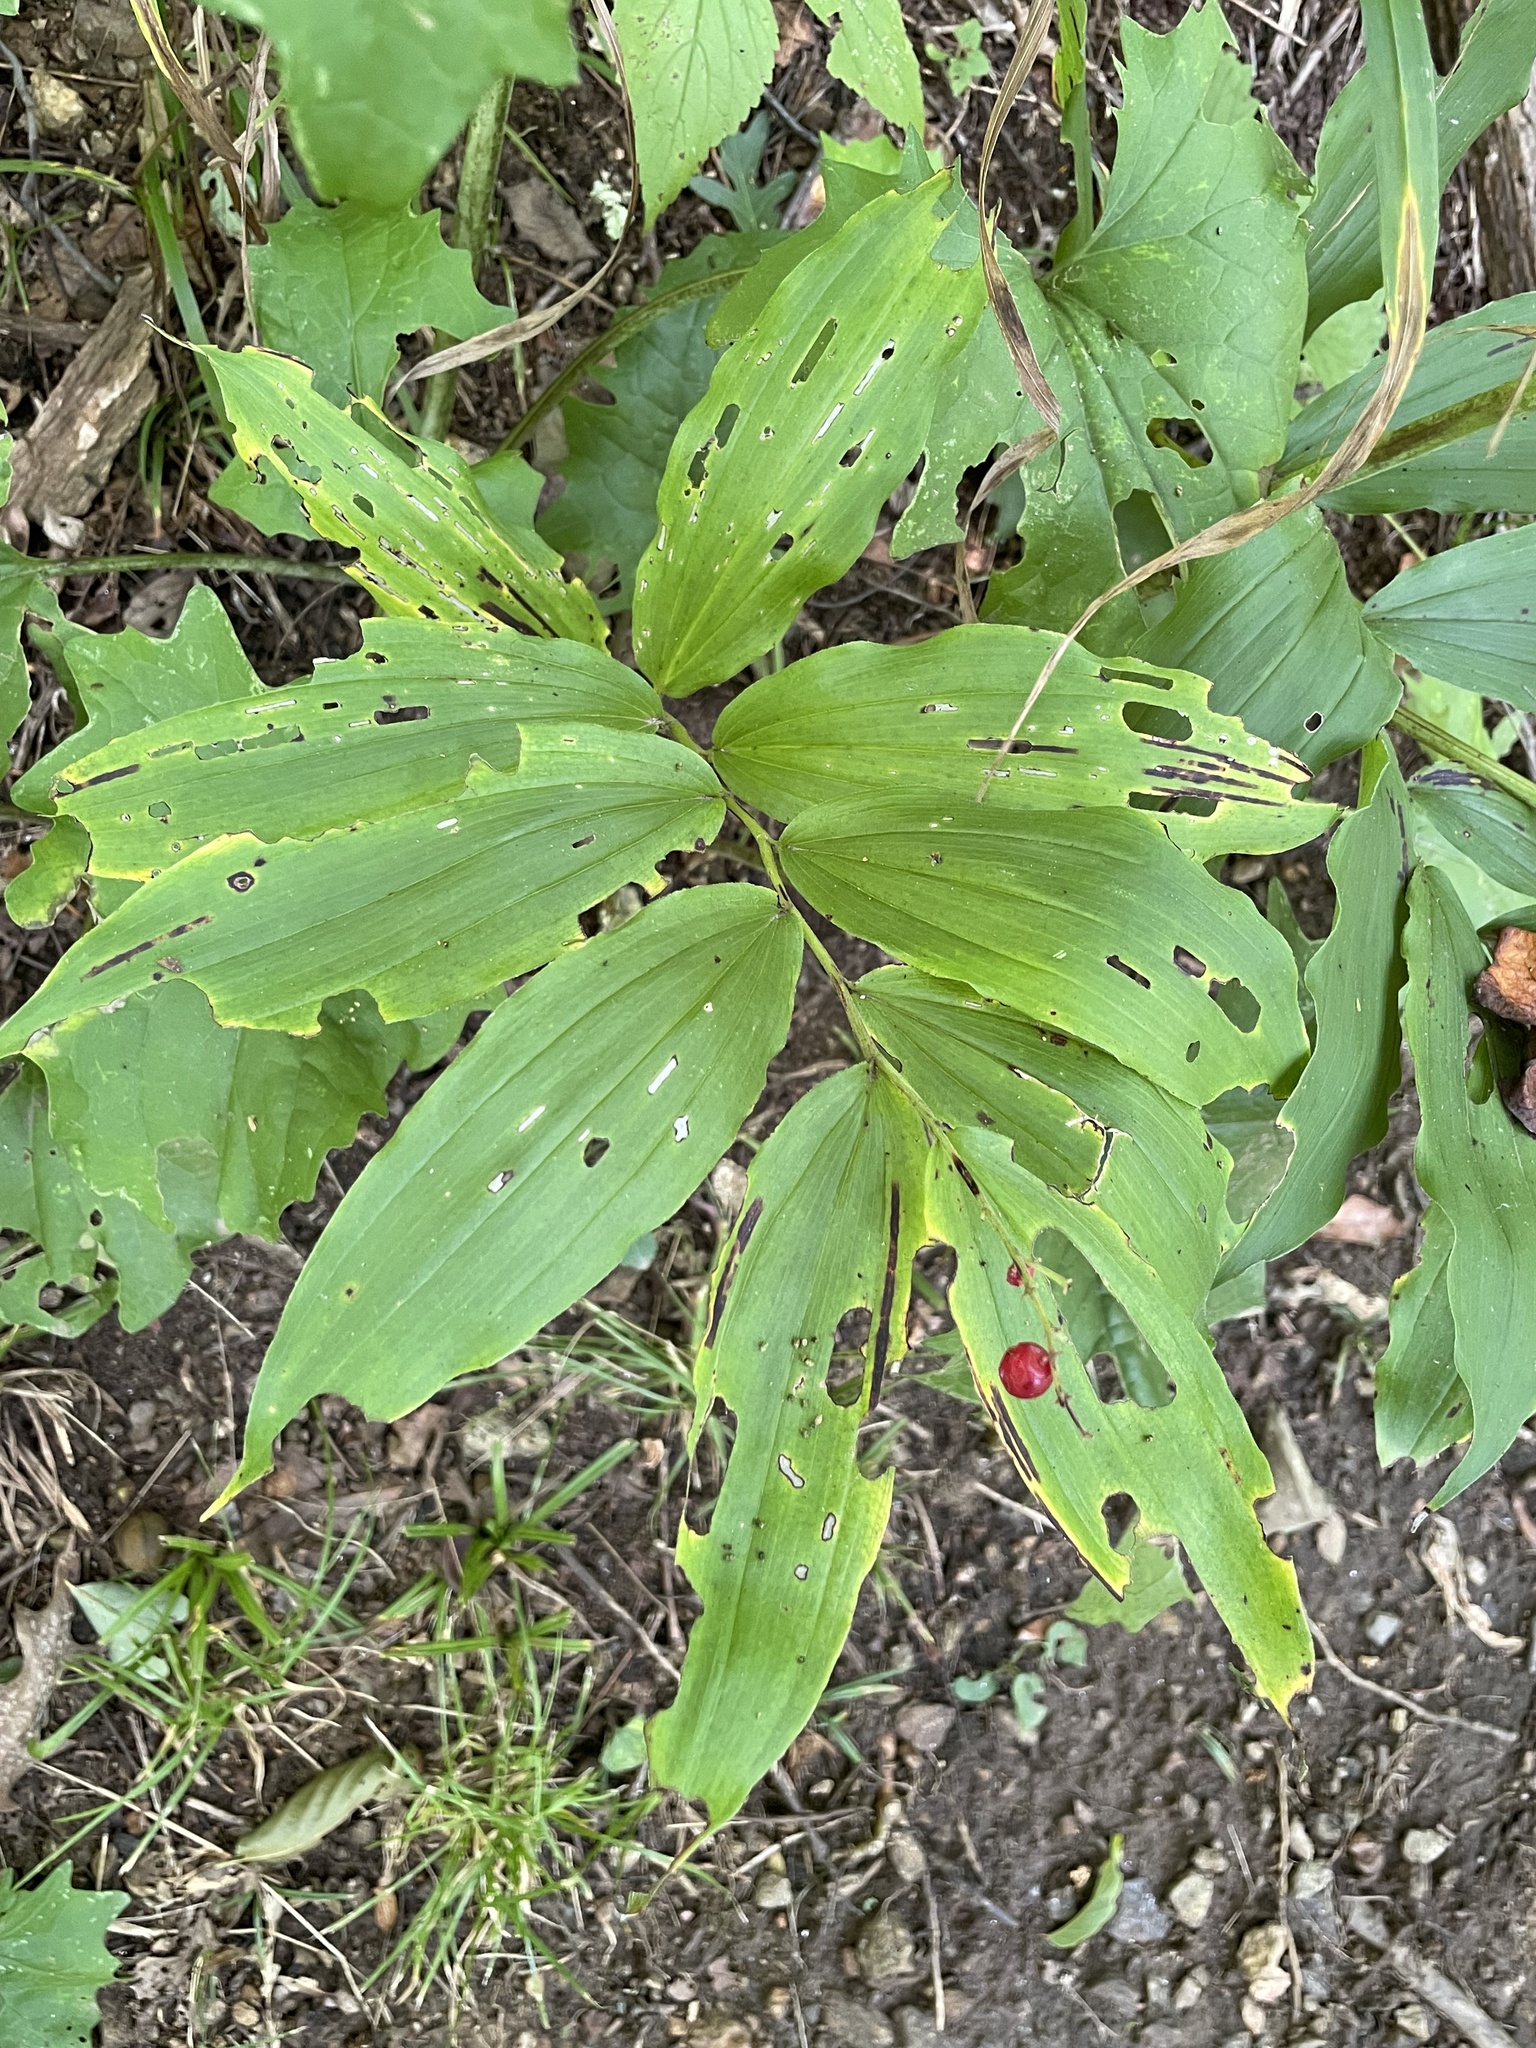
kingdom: Plantae
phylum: Tracheophyta
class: Liliopsida
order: Asparagales
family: Asparagaceae
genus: Maianthemum
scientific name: Maianthemum racemosum
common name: False spikenard
